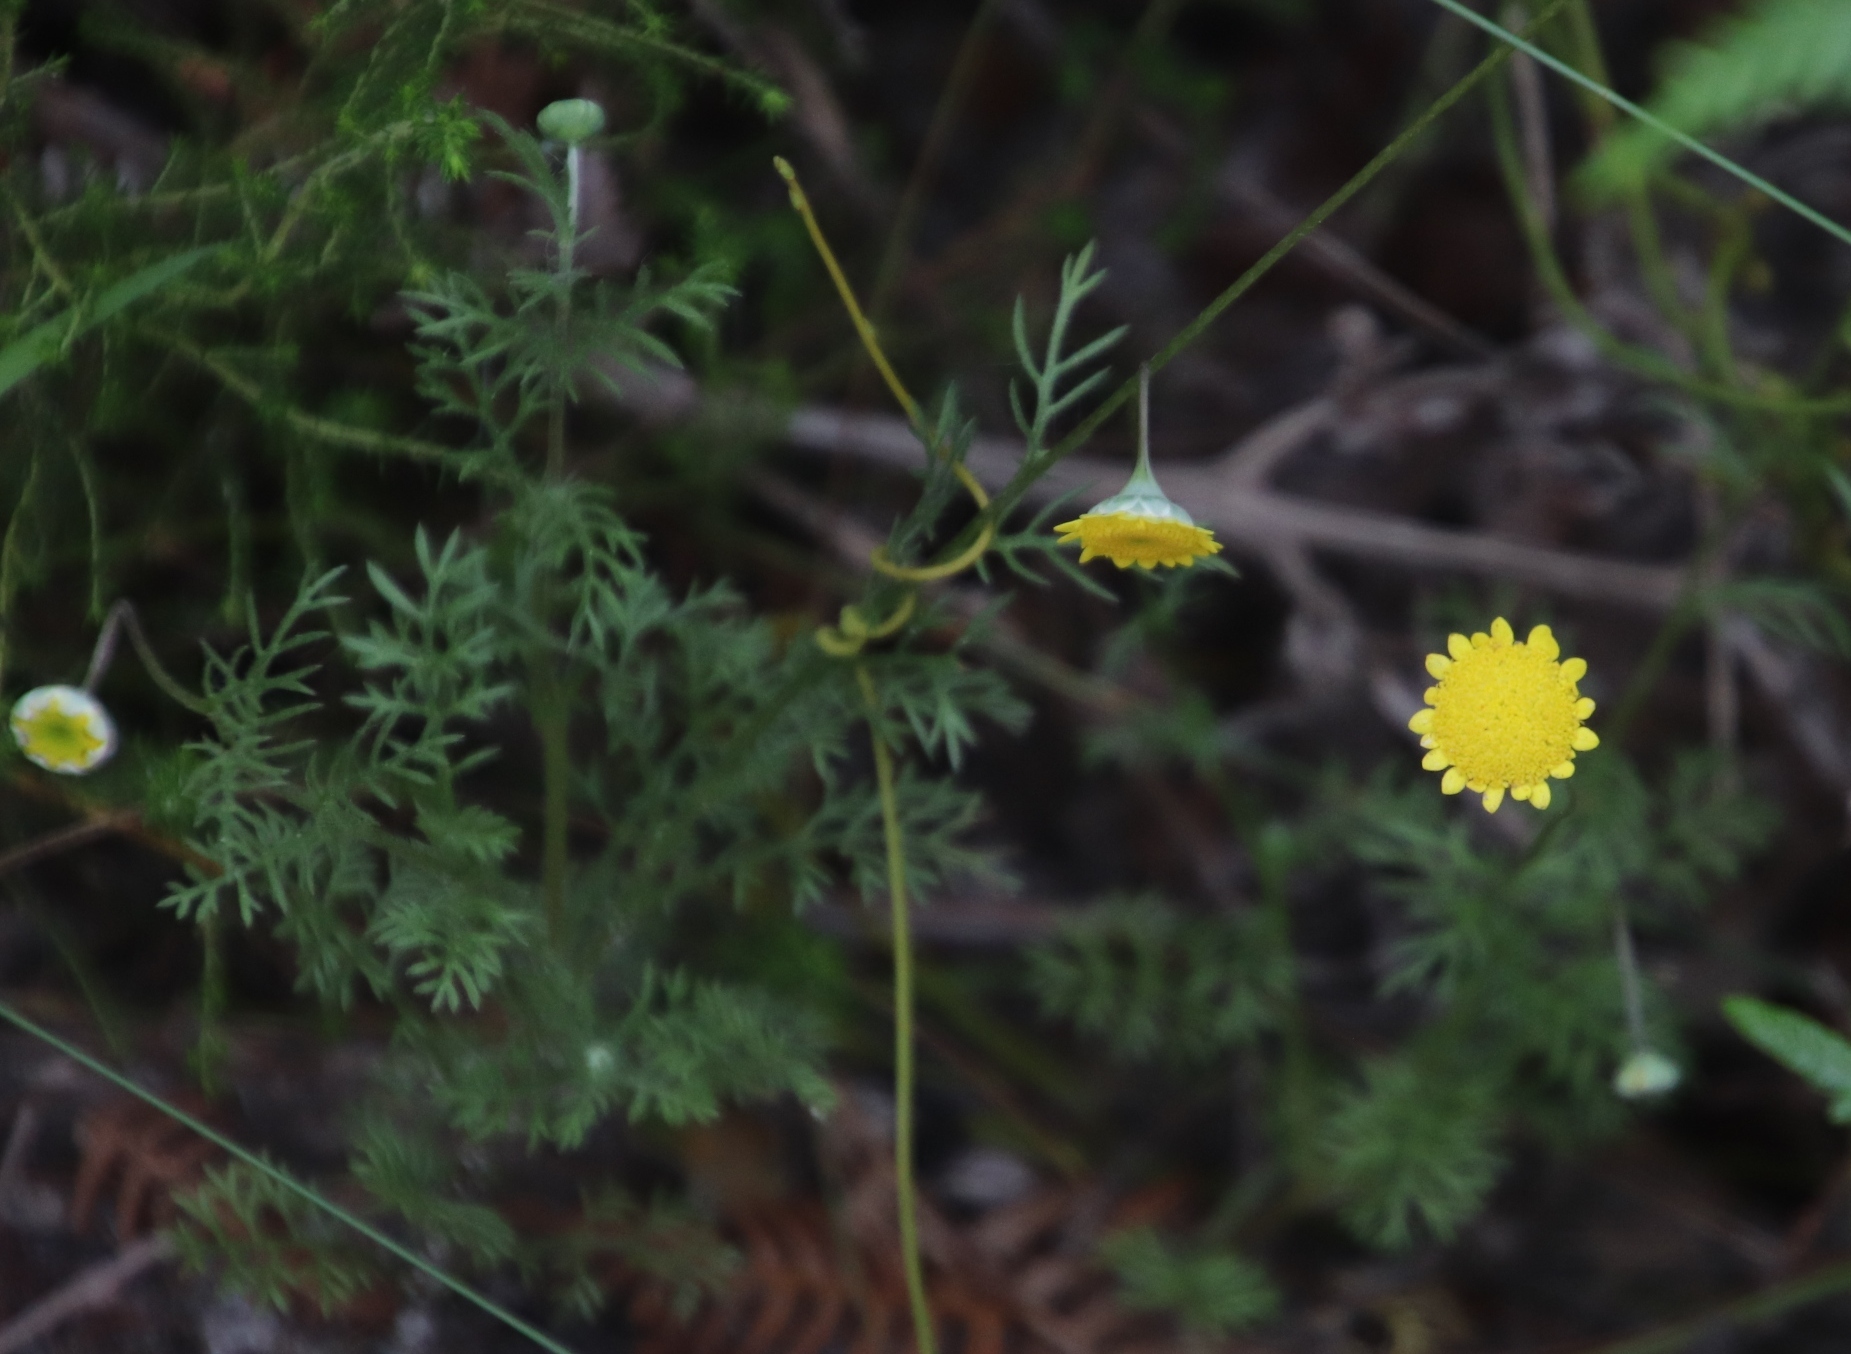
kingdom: Plantae
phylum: Tracheophyta
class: Magnoliopsida
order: Asterales
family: Asteraceae
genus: Cotula
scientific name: Cotula pruinosa
